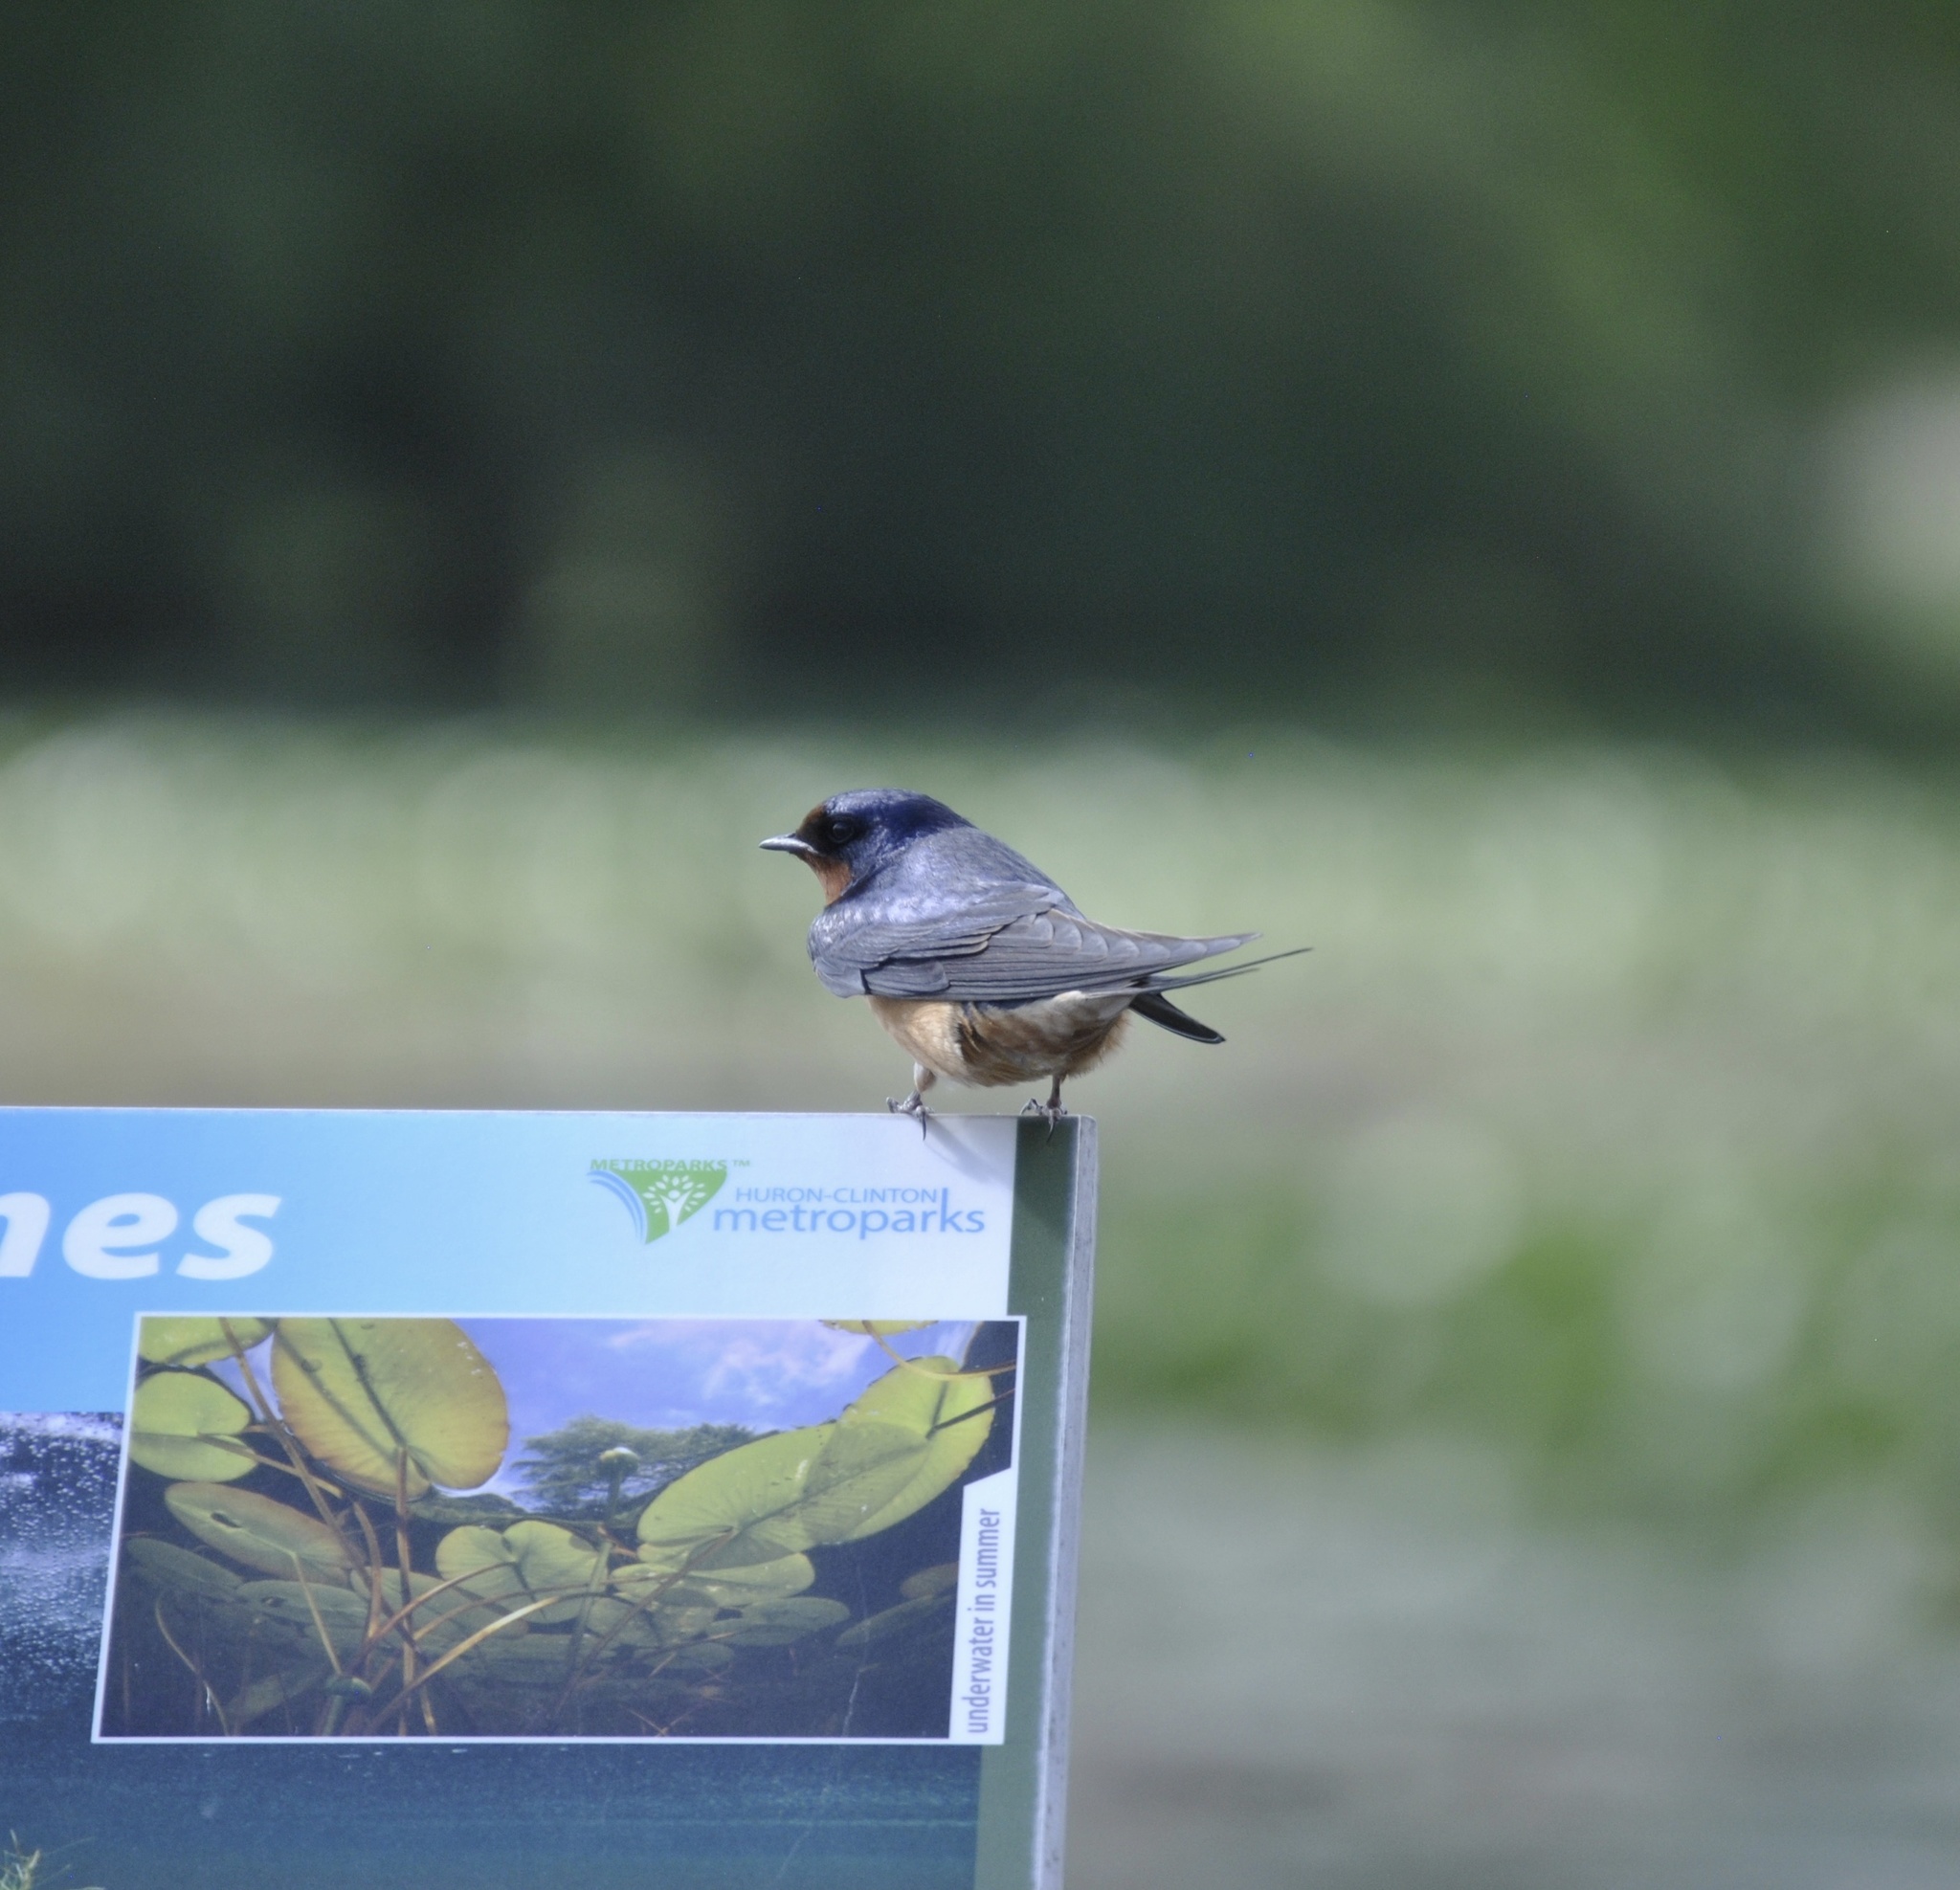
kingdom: Animalia
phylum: Chordata
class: Aves
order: Passeriformes
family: Hirundinidae
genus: Hirundo
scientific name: Hirundo rustica
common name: Barn swallow
